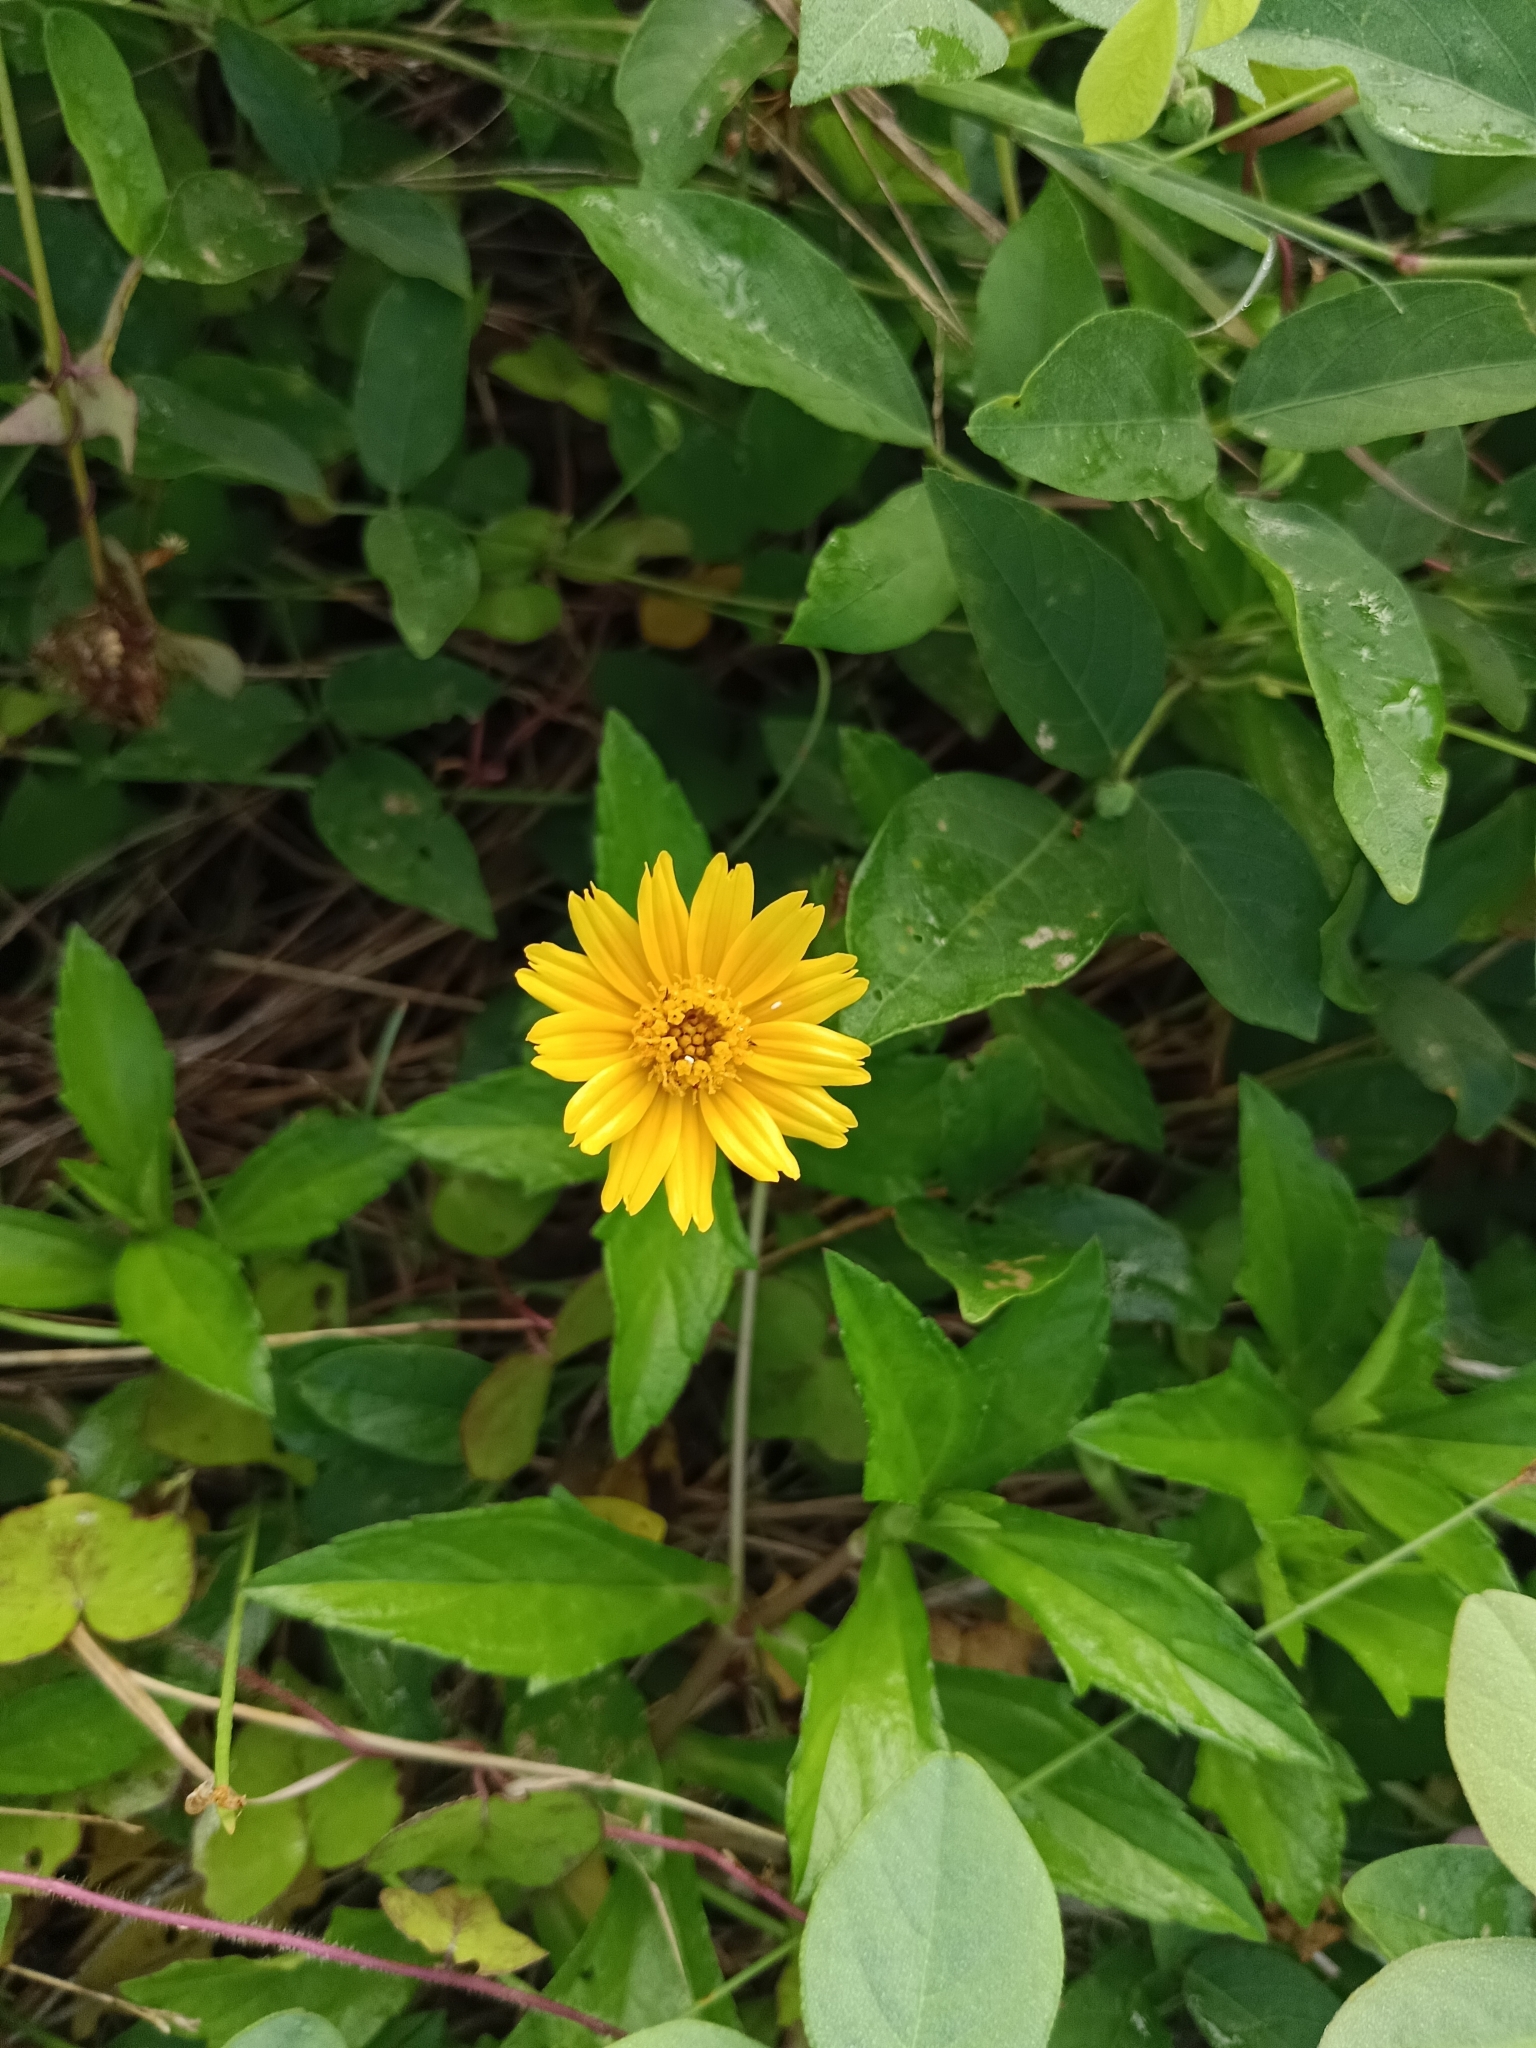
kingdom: Plantae
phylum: Tracheophyta
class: Magnoliopsida
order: Asterales
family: Asteraceae
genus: Sphagneticola
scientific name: Sphagneticola trilobata
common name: Bay biscayne creeping-oxeye
